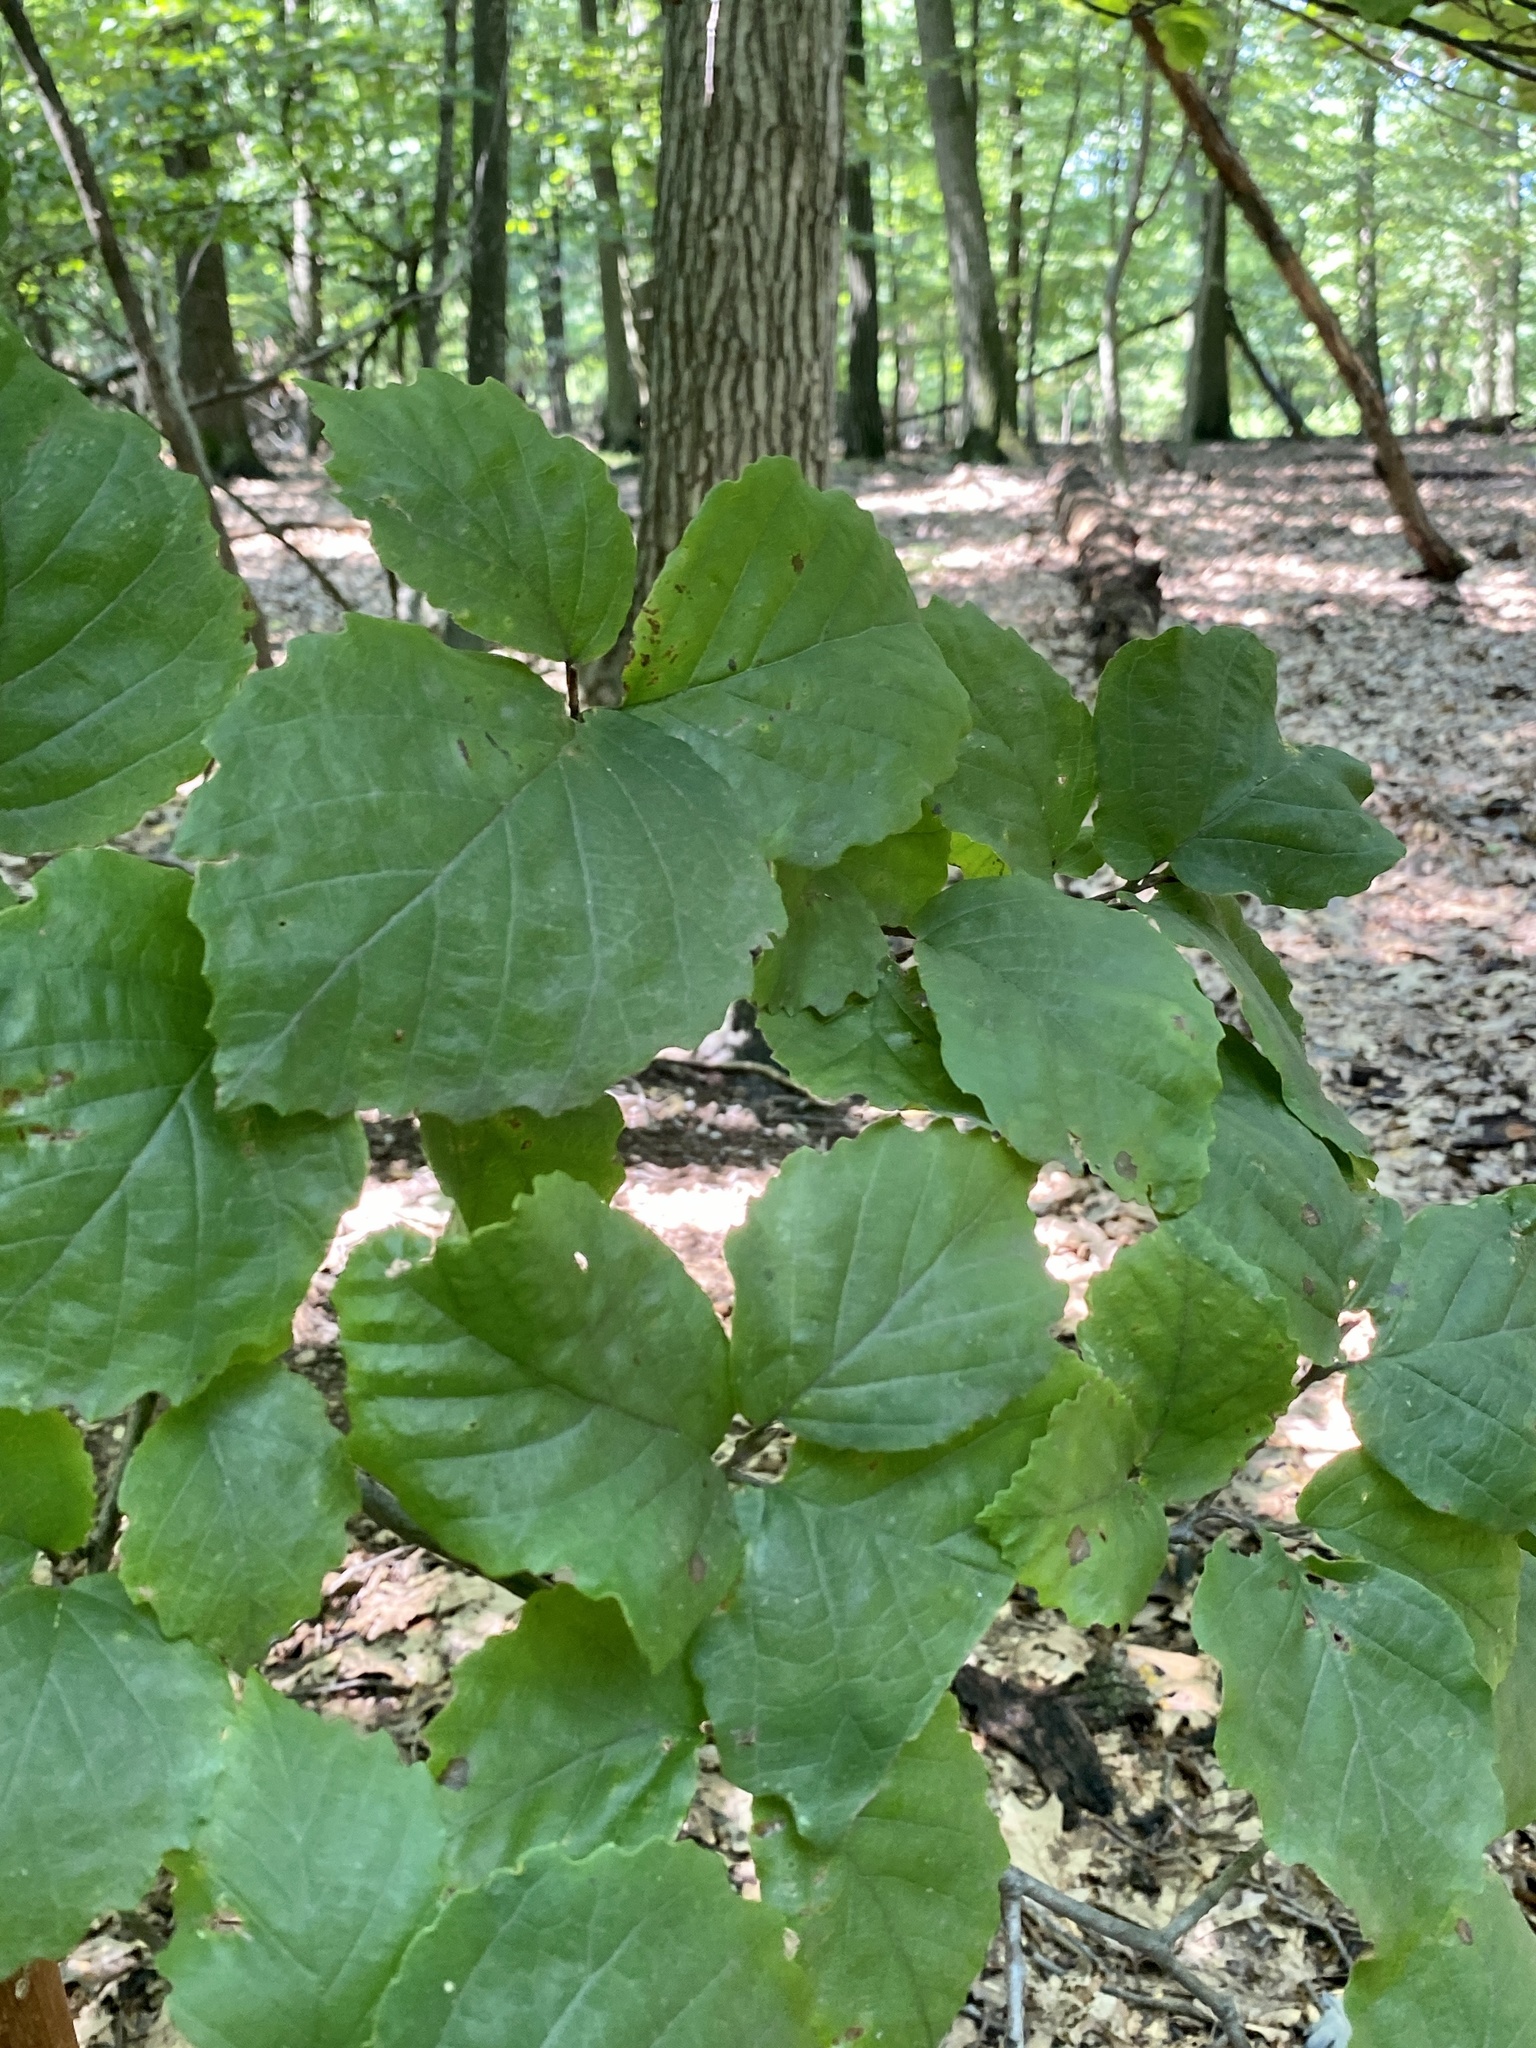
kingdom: Plantae
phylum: Tracheophyta
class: Magnoliopsida
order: Saxifragales
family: Hamamelidaceae
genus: Hamamelis
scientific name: Hamamelis virginiana
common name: Witch-hazel
